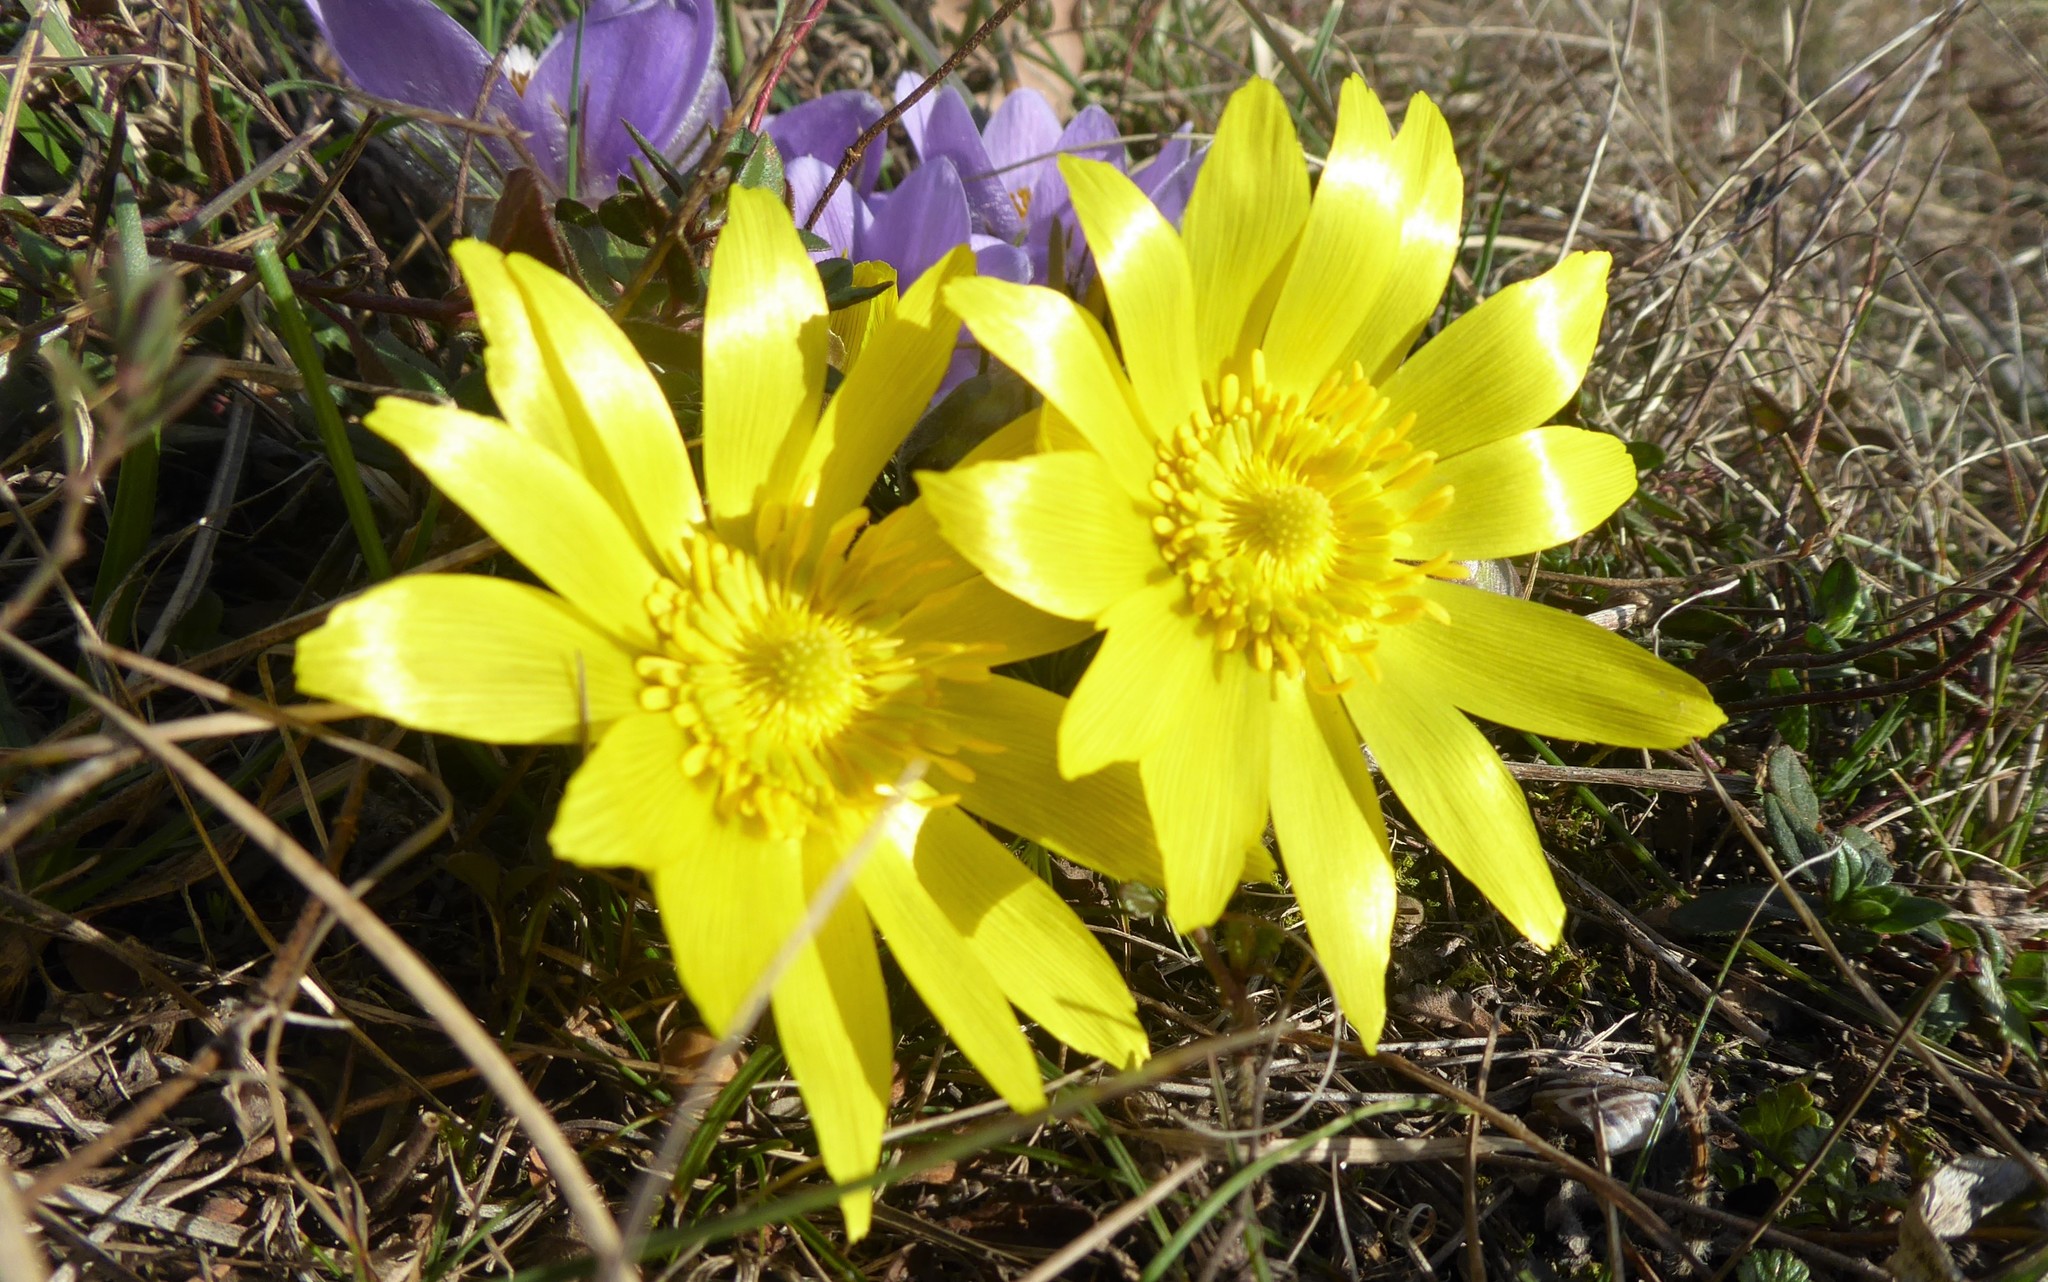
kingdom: Plantae
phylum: Tracheophyta
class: Magnoliopsida
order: Ranunculales
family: Ranunculaceae
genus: Adonis
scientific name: Adonis vernalis
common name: Yellow pheasants-eye
